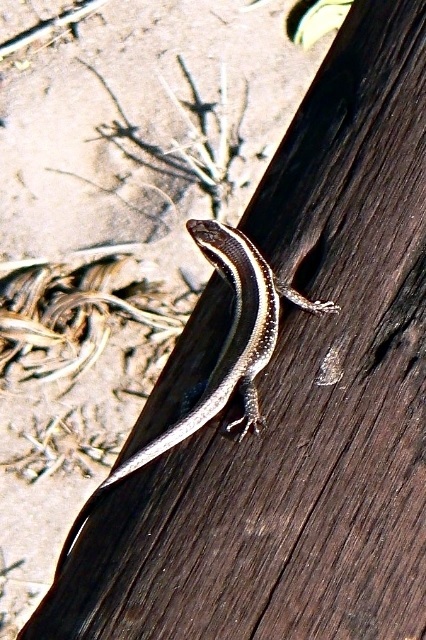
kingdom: Animalia
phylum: Chordata
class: Squamata
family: Scincidae
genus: Trachylepis
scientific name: Trachylepis striata
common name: African striped mabuya
